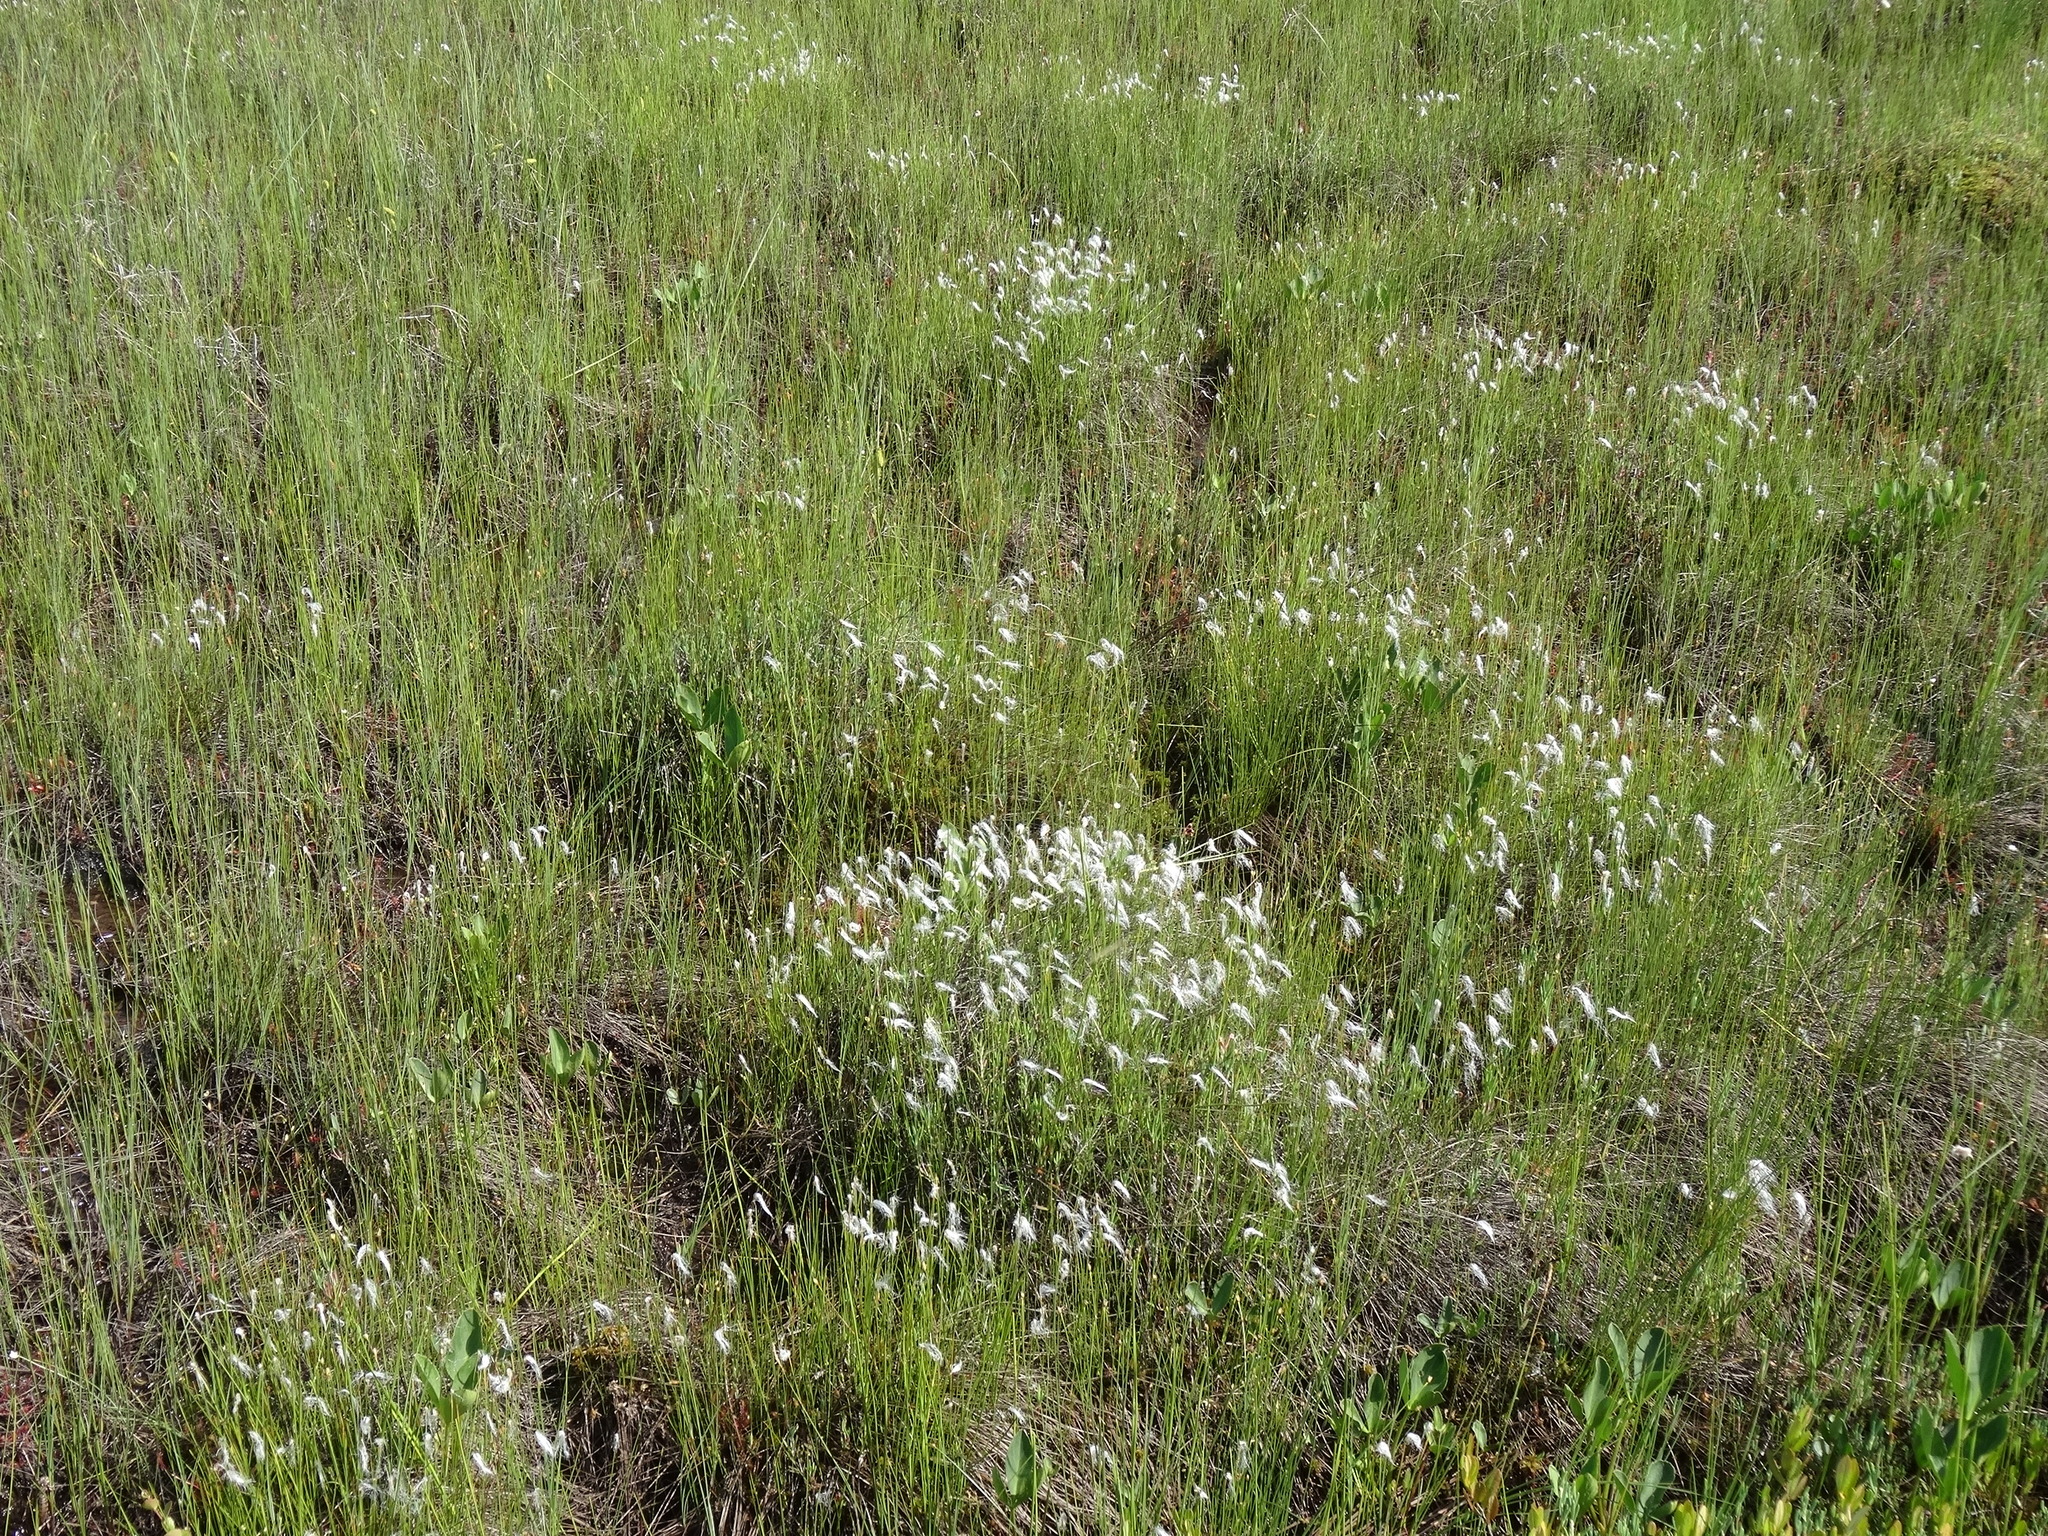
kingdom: Plantae
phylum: Tracheophyta
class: Liliopsida
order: Poales
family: Cyperaceae
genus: Trichophorum
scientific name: Trichophorum alpinum
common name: Alpine bulrush
